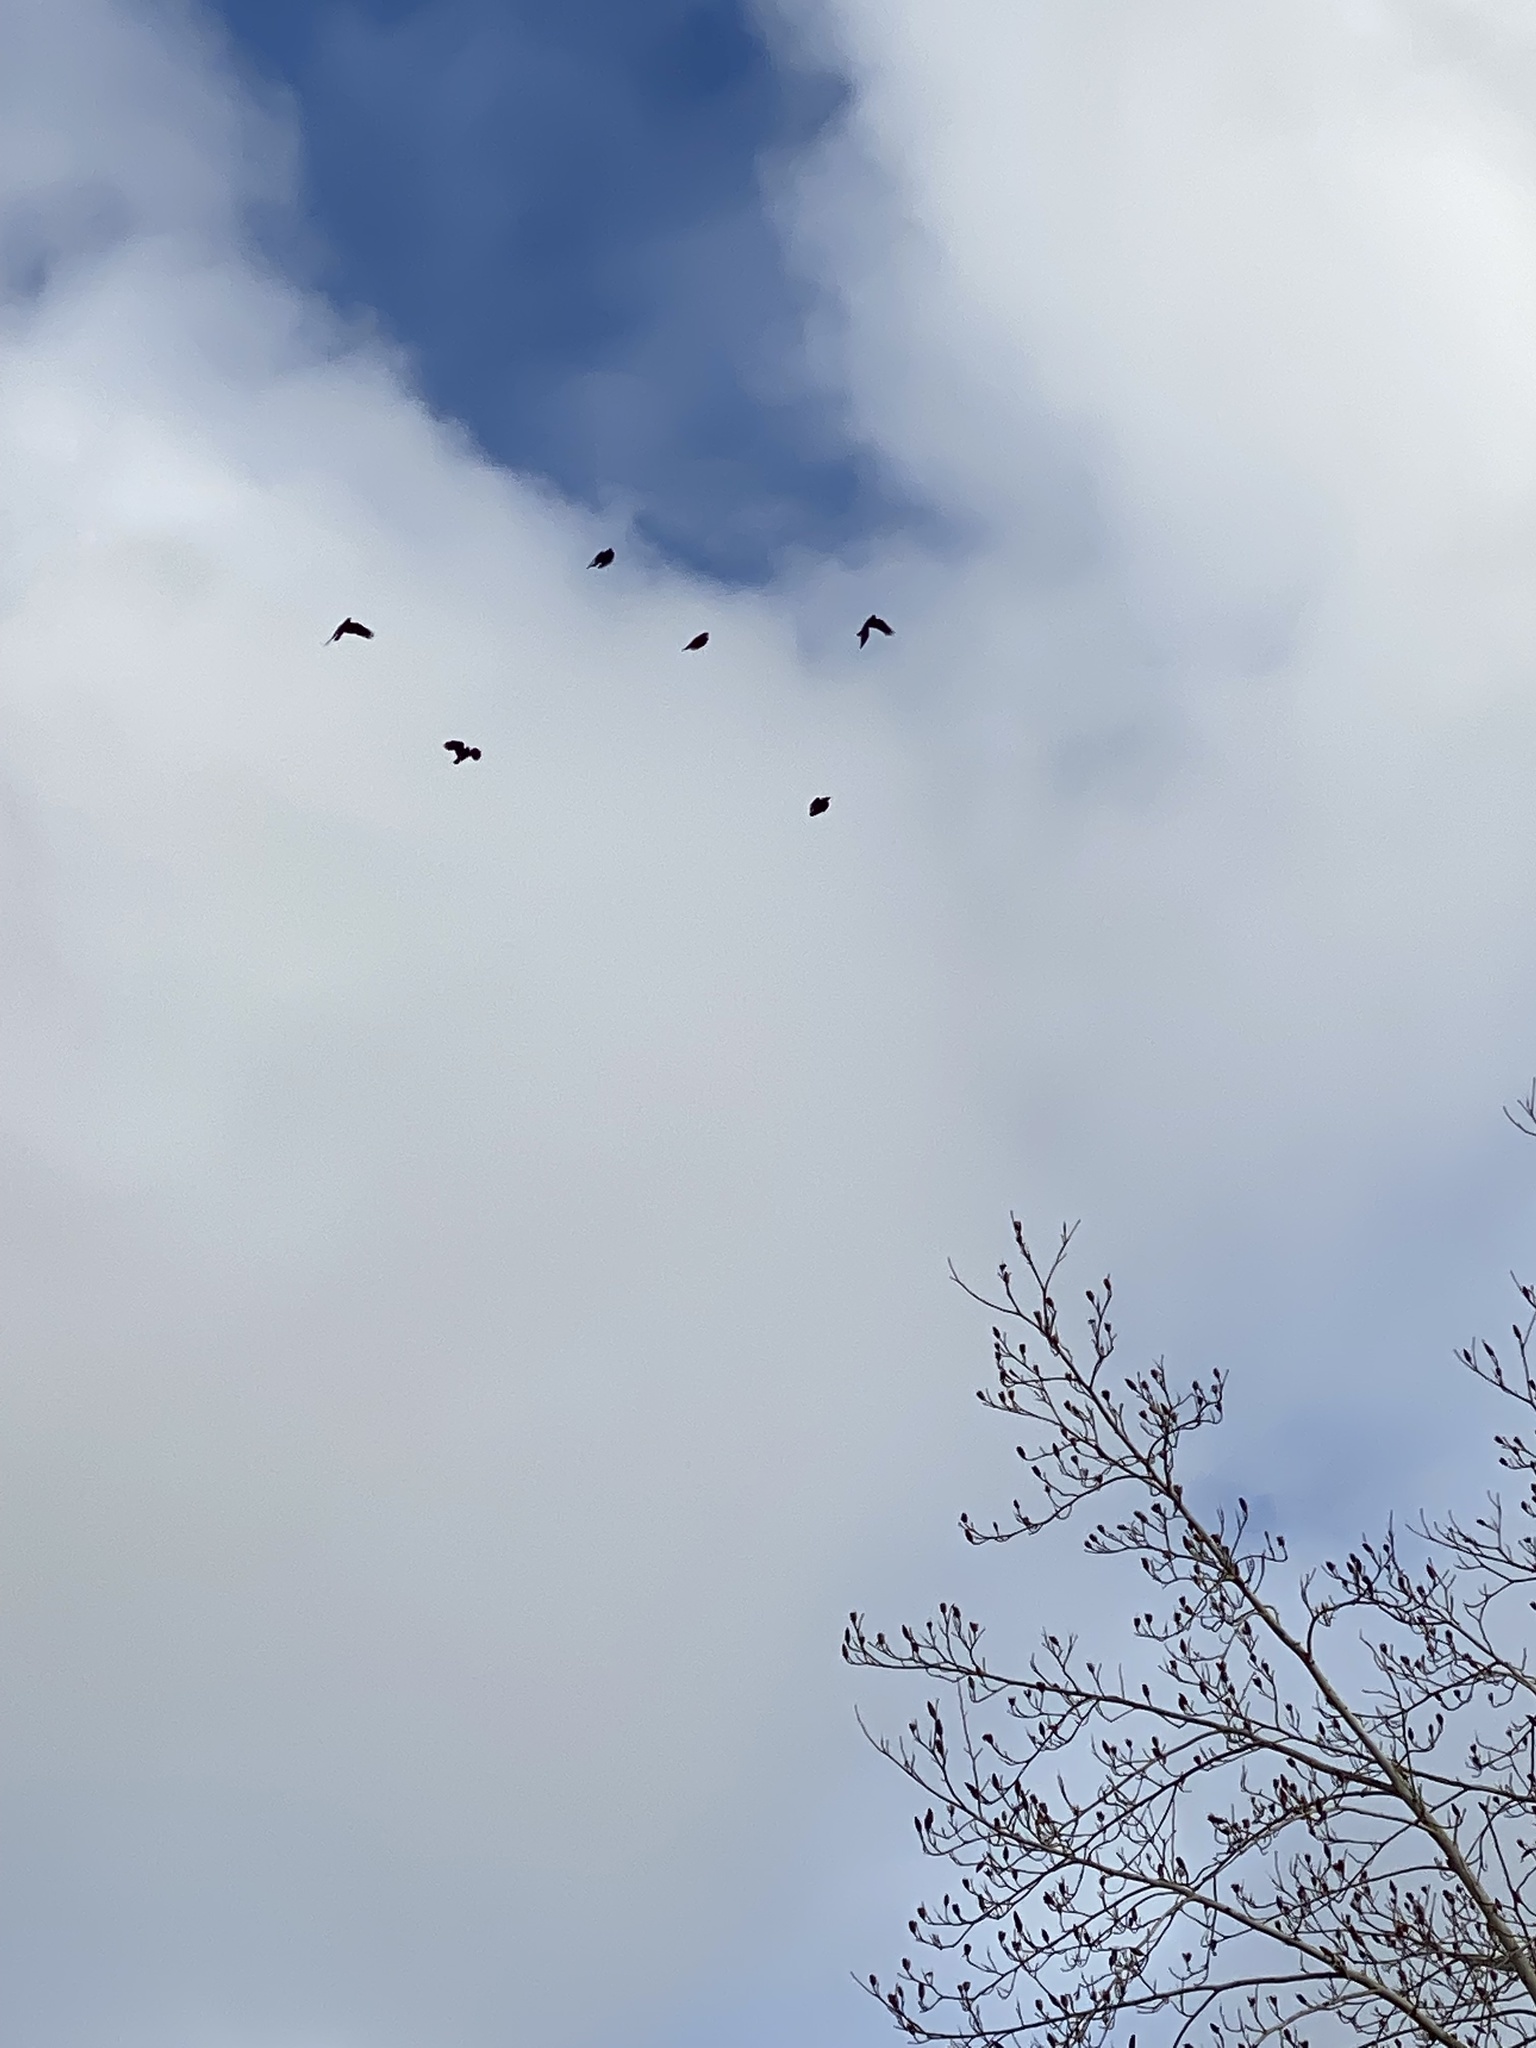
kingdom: Animalia
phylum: Chordata
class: Aves
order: Passeriformes
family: Corvidae
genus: Corvus
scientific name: Corvus brachyrhynchos
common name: American crow
